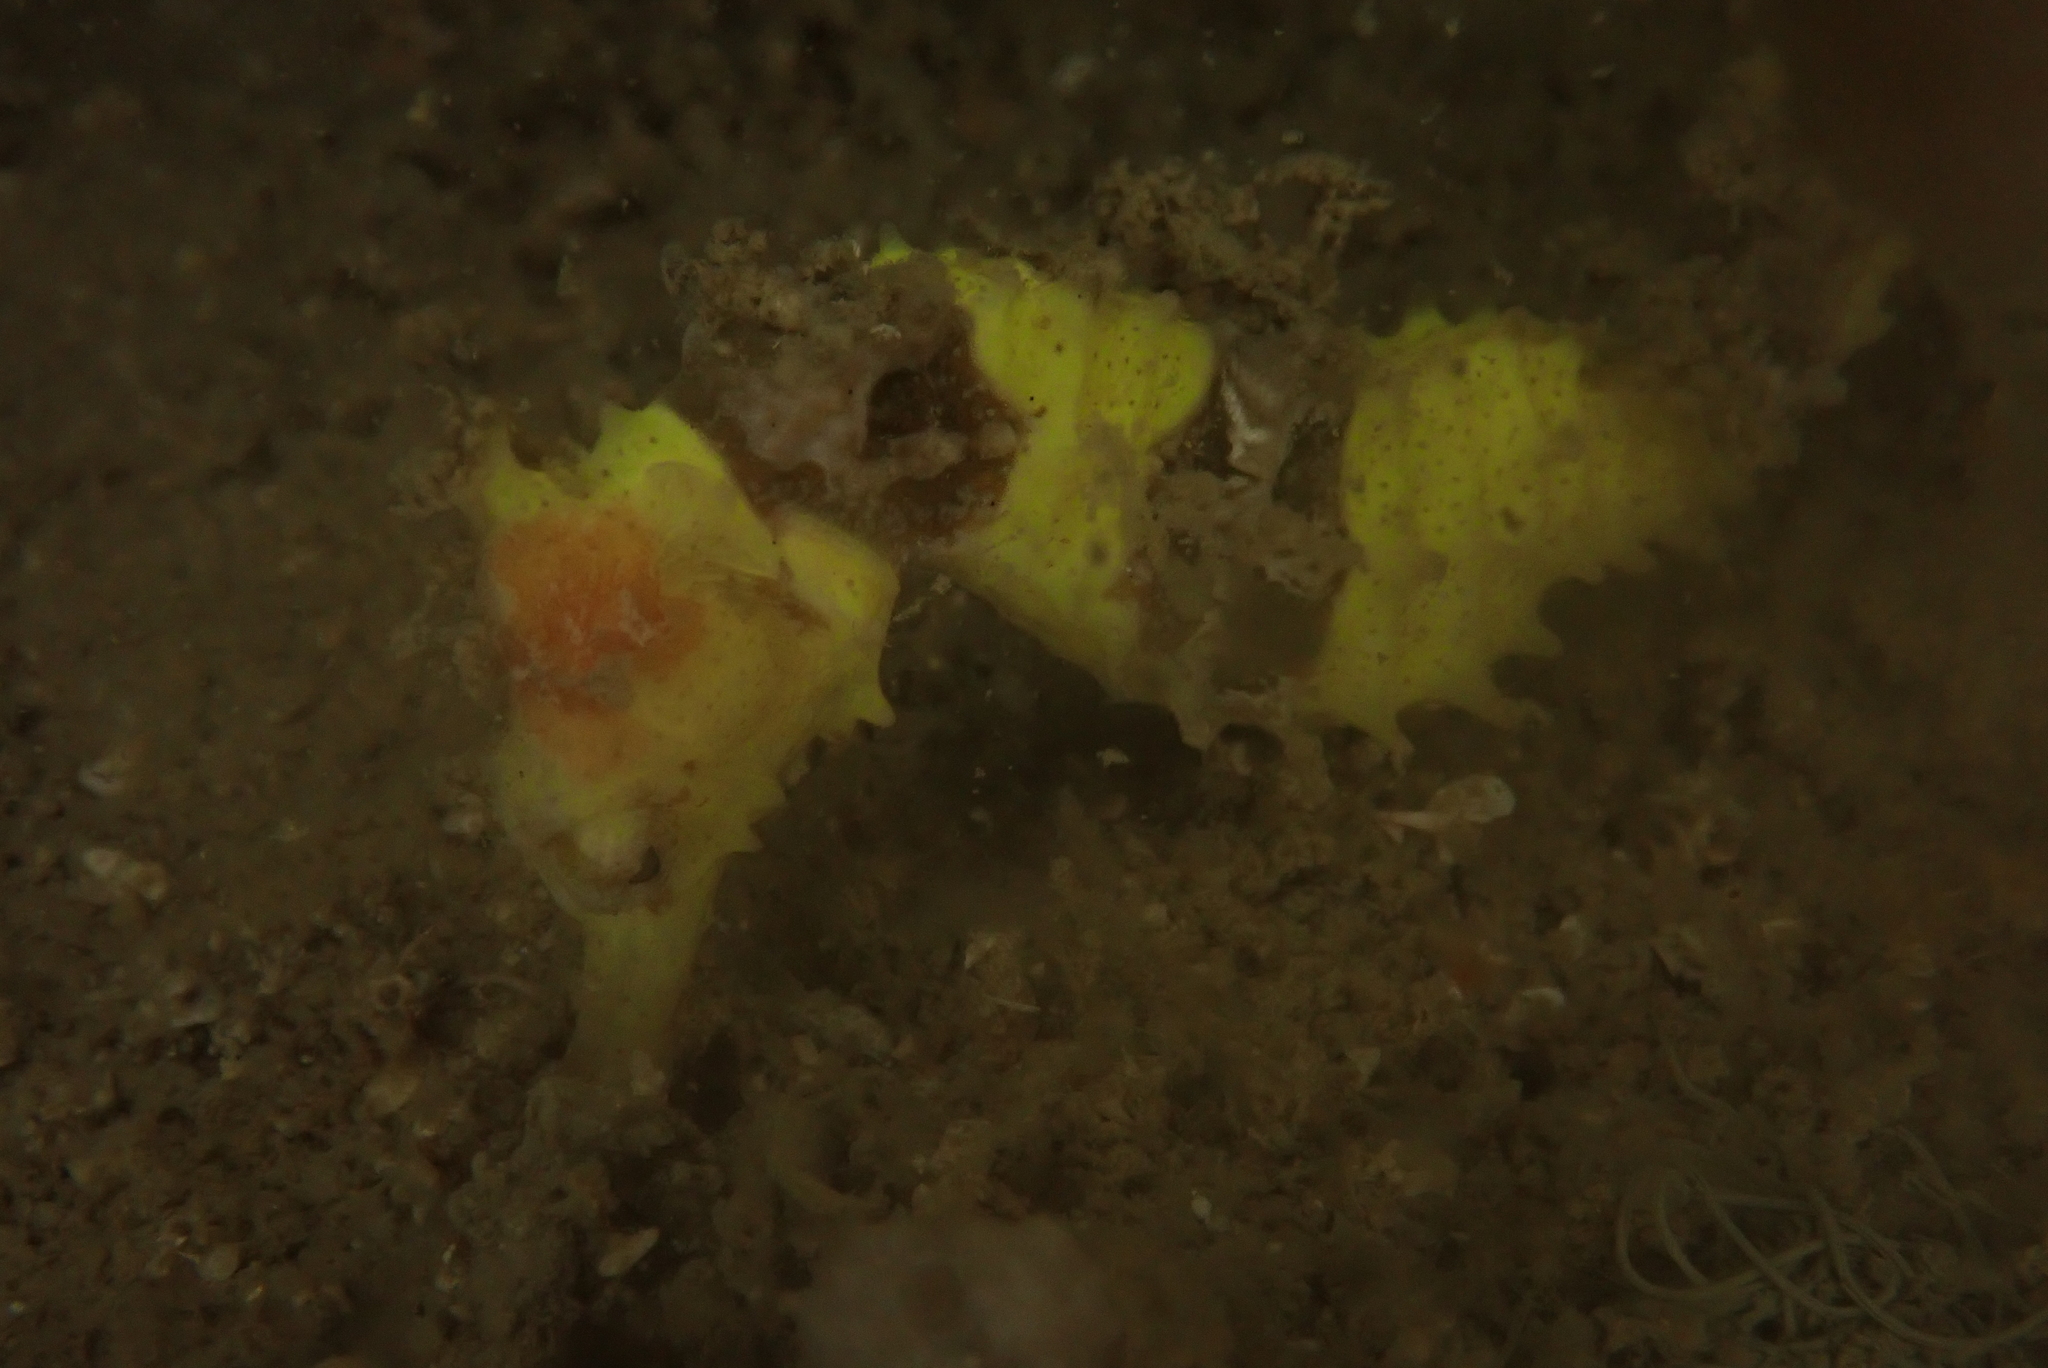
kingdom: Animalia
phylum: Chordata
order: Syngnathiformes
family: Syngnathidae
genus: Hippocampus
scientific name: Hippocampus spinosissimus
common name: Hedgehog seahorse
